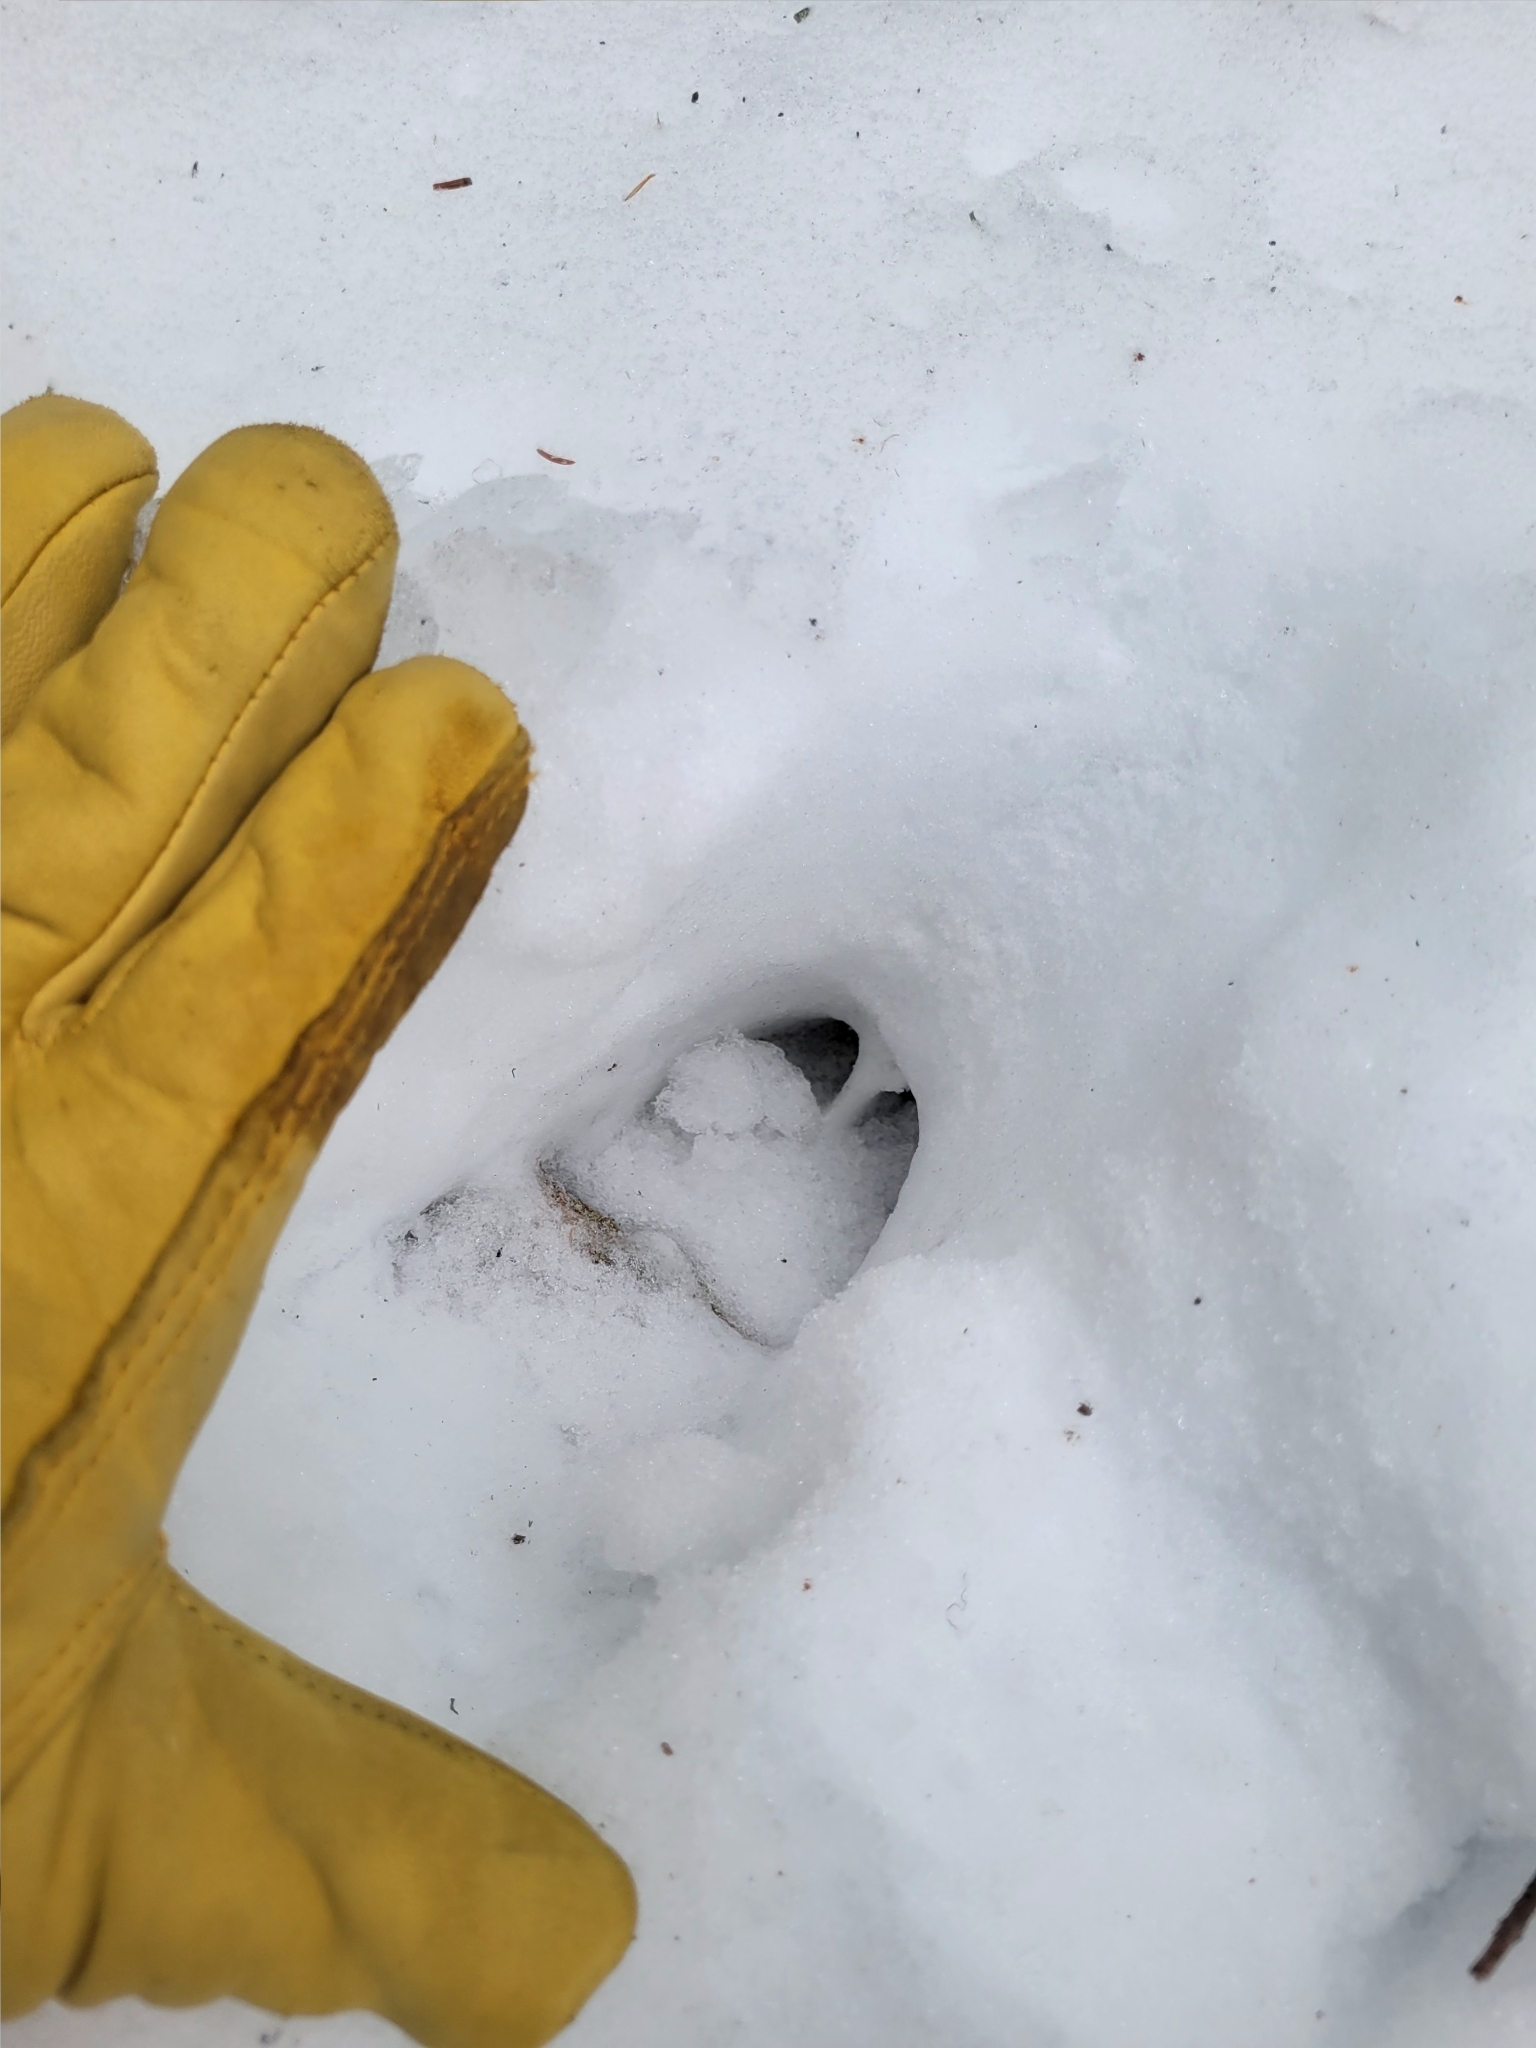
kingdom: Animalia
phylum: Chordata
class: Mammalia
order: Artiodactyla
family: Cervidae
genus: Odocoileus
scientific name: Odocoileus virginianus
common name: White-tailed deer
